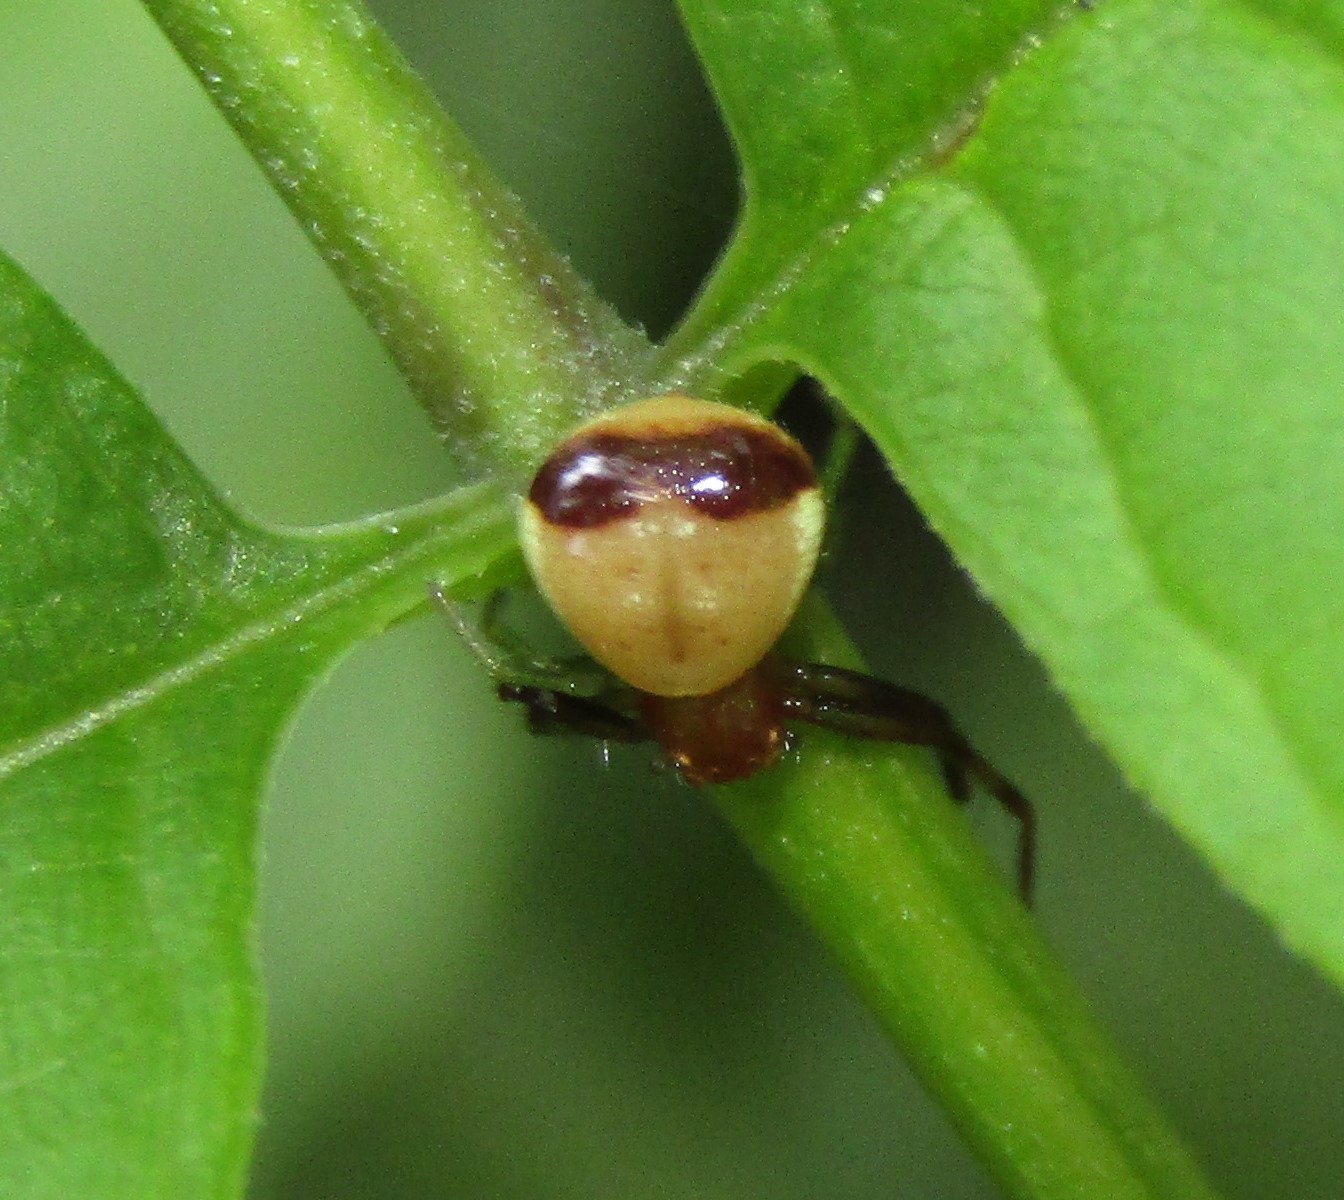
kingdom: Animalia
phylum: Arthropoda
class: Arachnida
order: Araneae
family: Thomisidae
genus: Synema
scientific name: Synema parvulum
